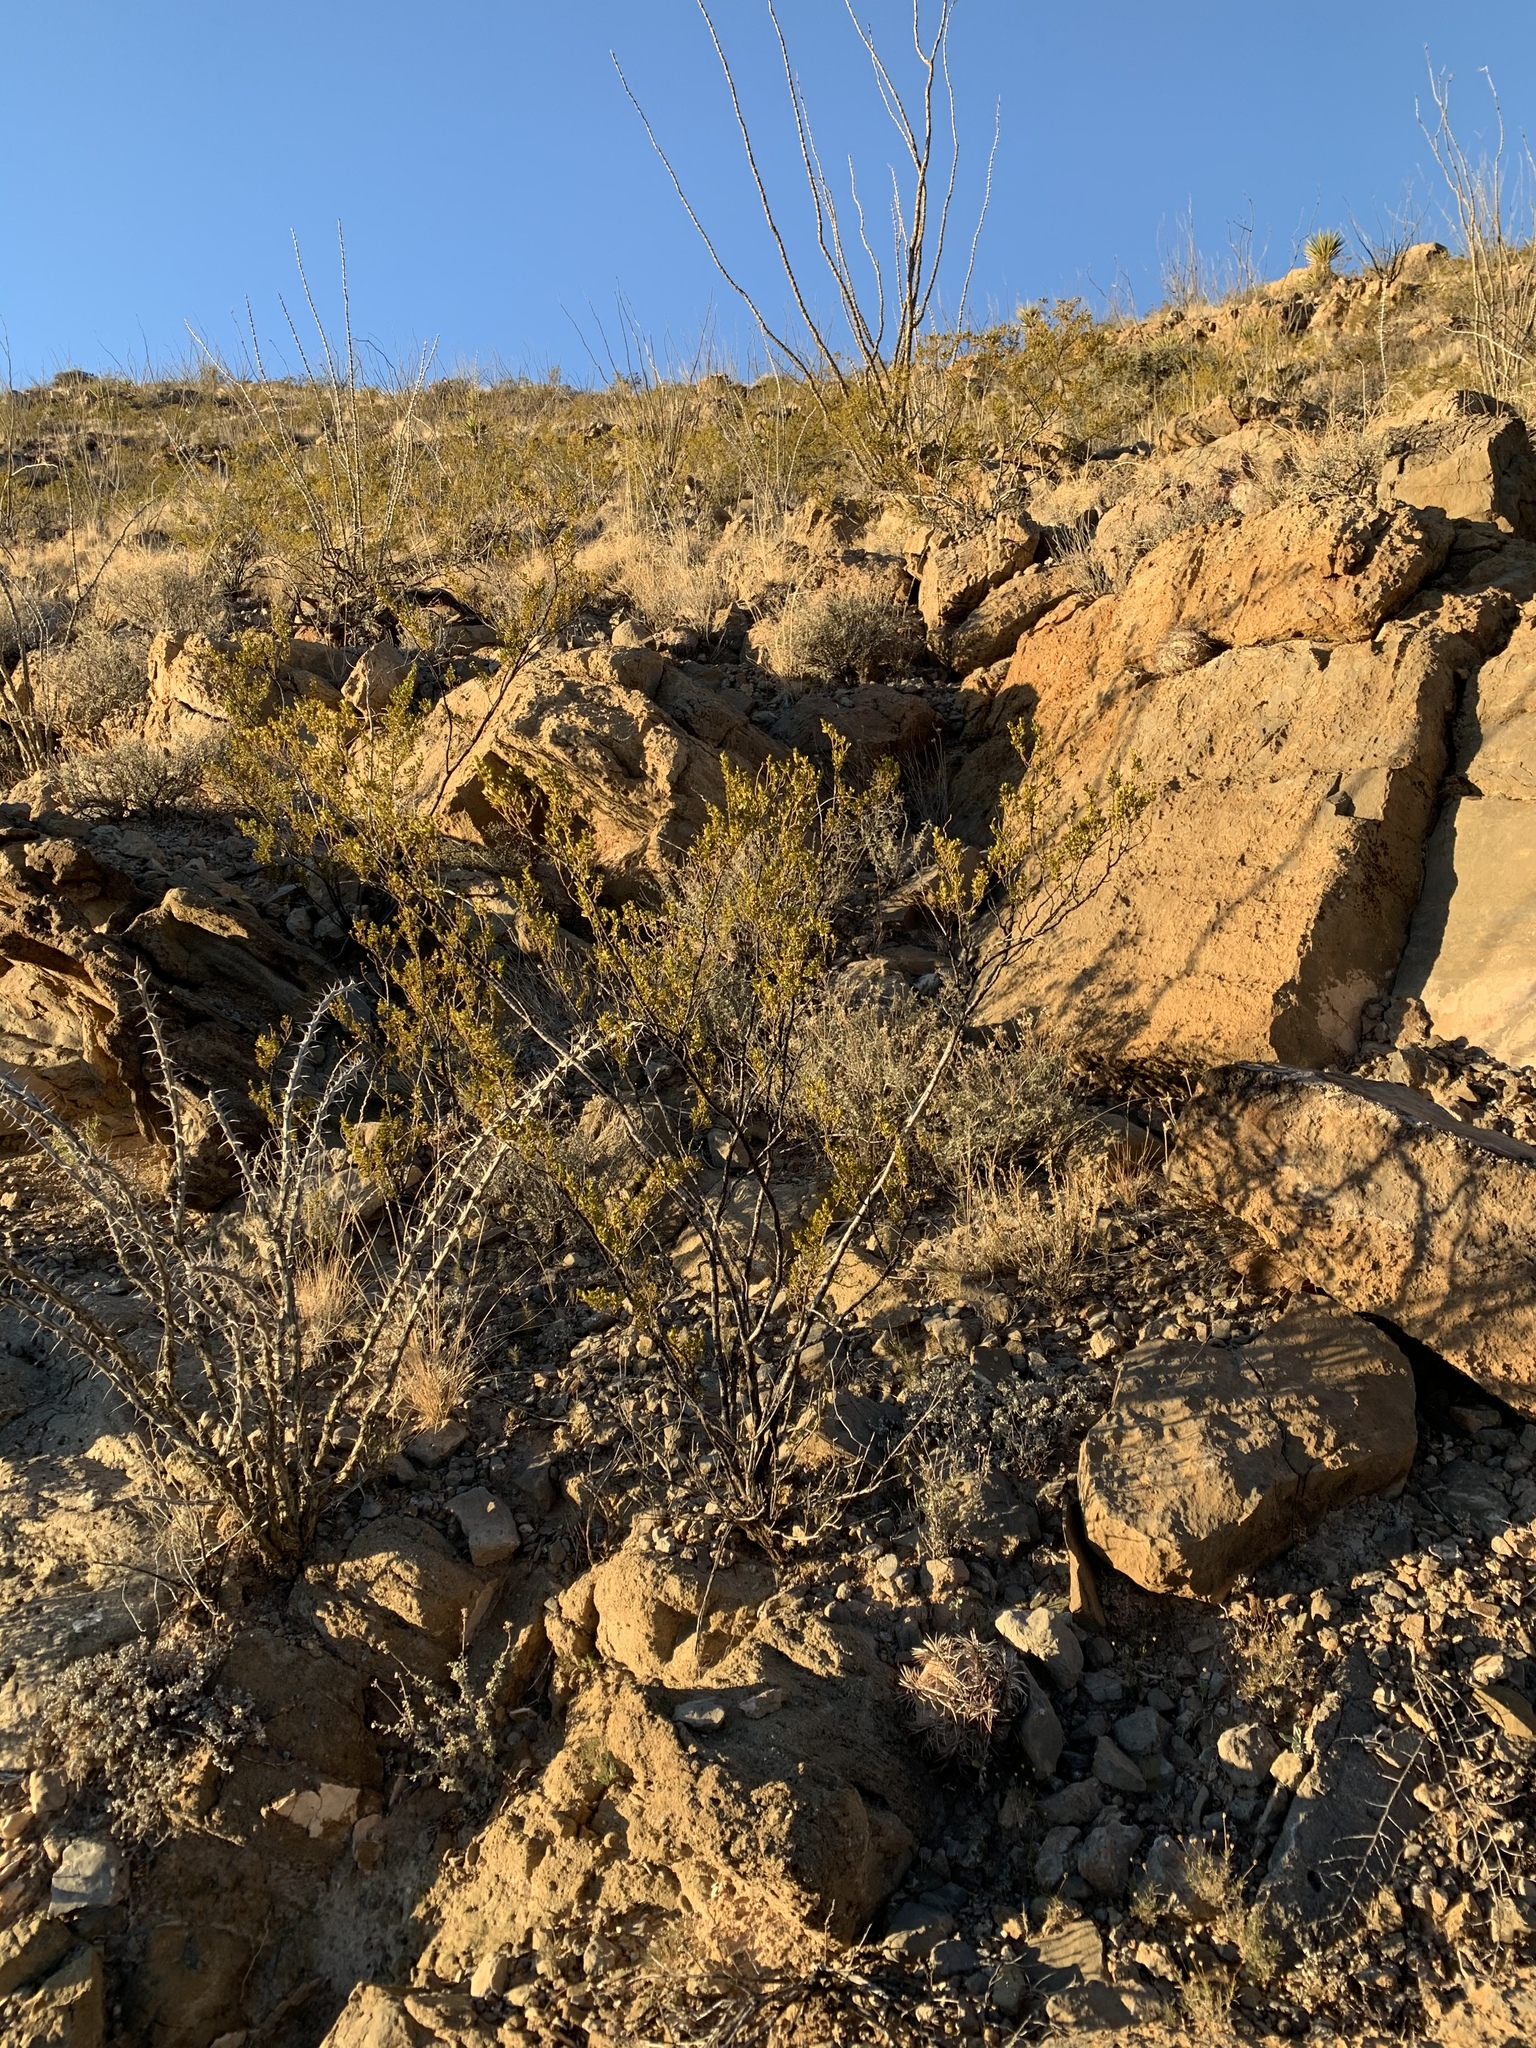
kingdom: Plantae
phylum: Tracheophyta
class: Magnoliopsida
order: Ericales
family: Fouquieriaceae
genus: Fouquieria
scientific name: Fouquieria splendens
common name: Vine-cactus
